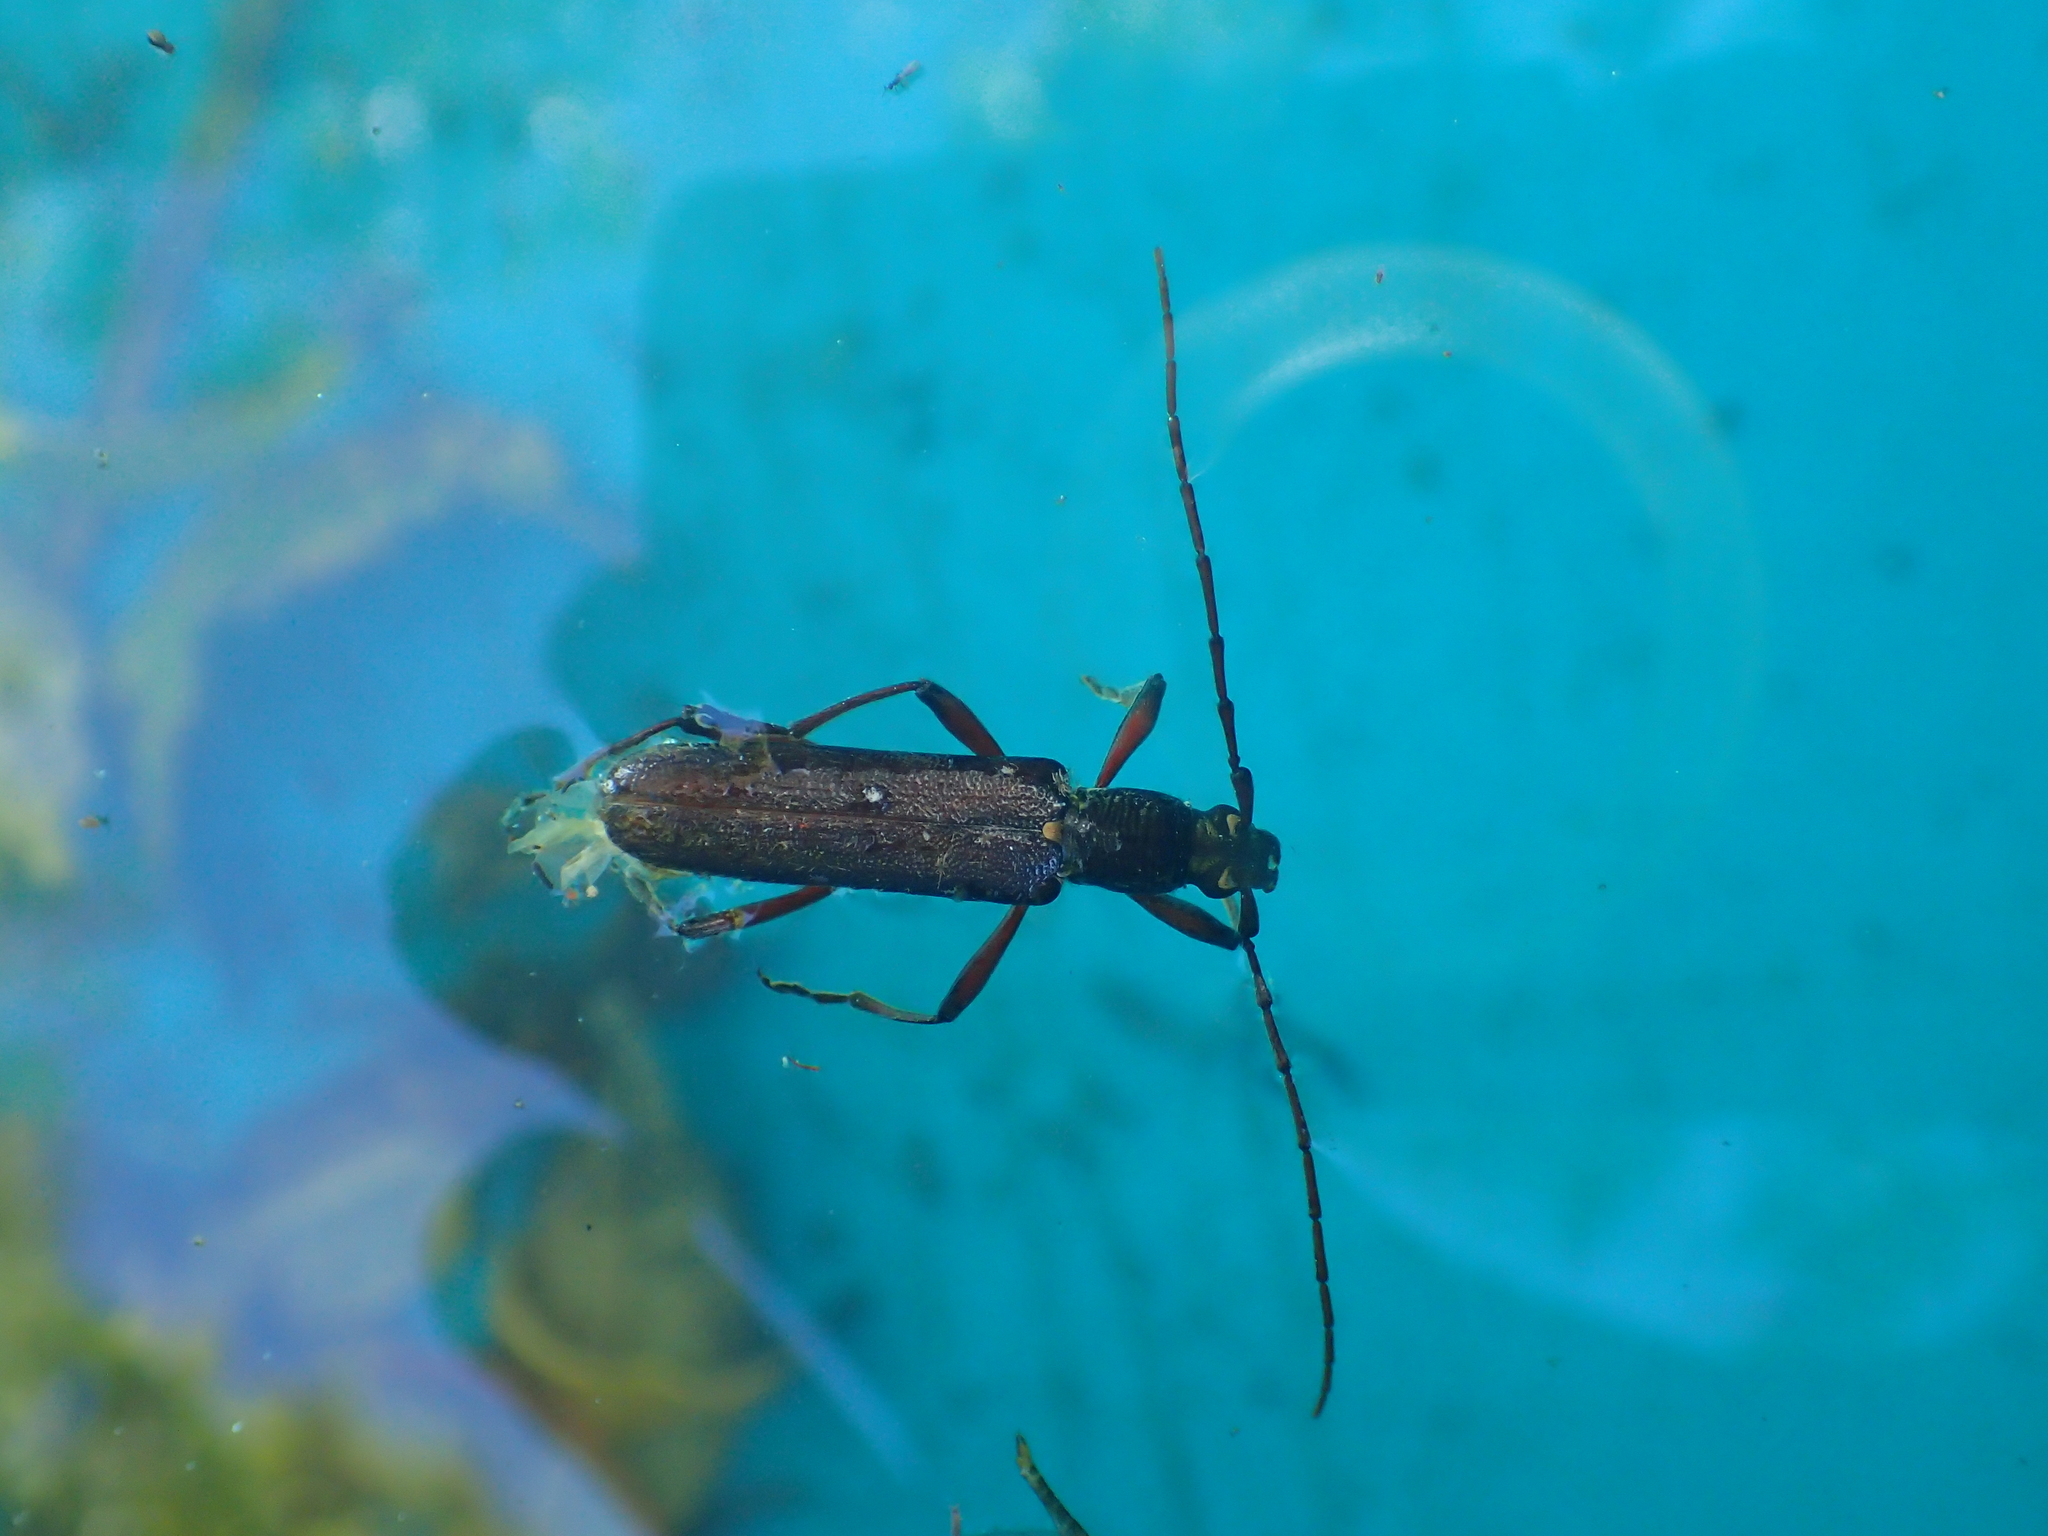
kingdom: Animalia
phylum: Arthropoda
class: Insecta
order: Coleoptera
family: Cerambycidae
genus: Oemona
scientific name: Oemona hirta
